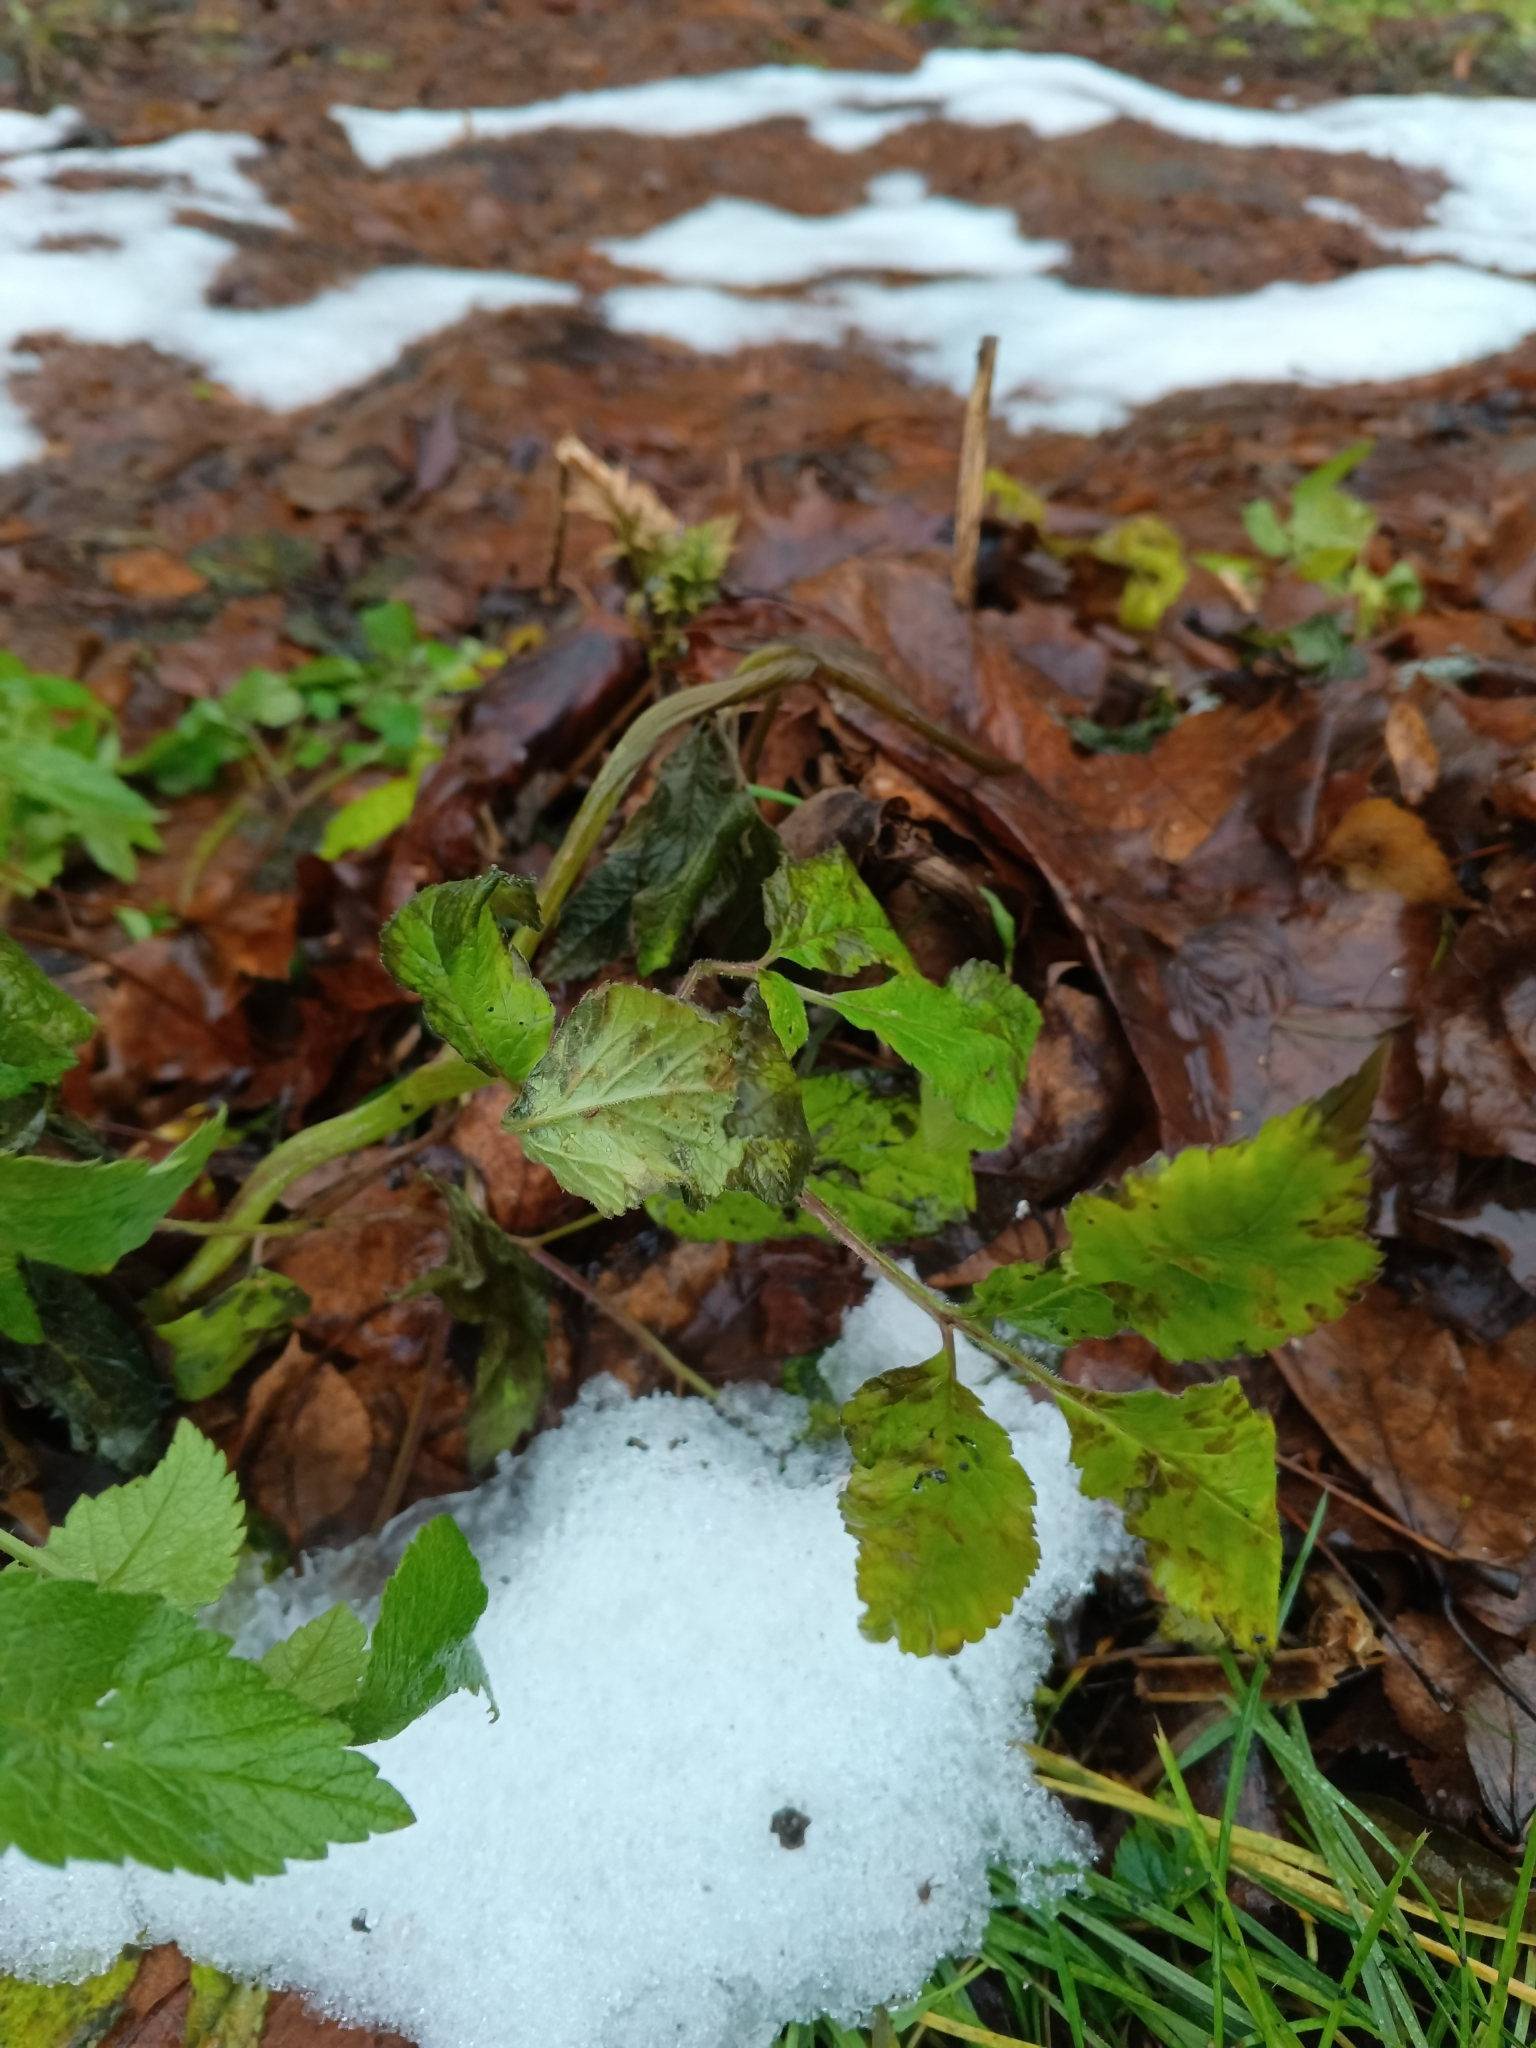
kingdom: Plantae
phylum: Tracheophyta
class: Magnoliopsida
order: Apiales
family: Apiaceae
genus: Chaerophyllum
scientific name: Chaerophyllum aromaticum
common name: Broadleaf chervil
